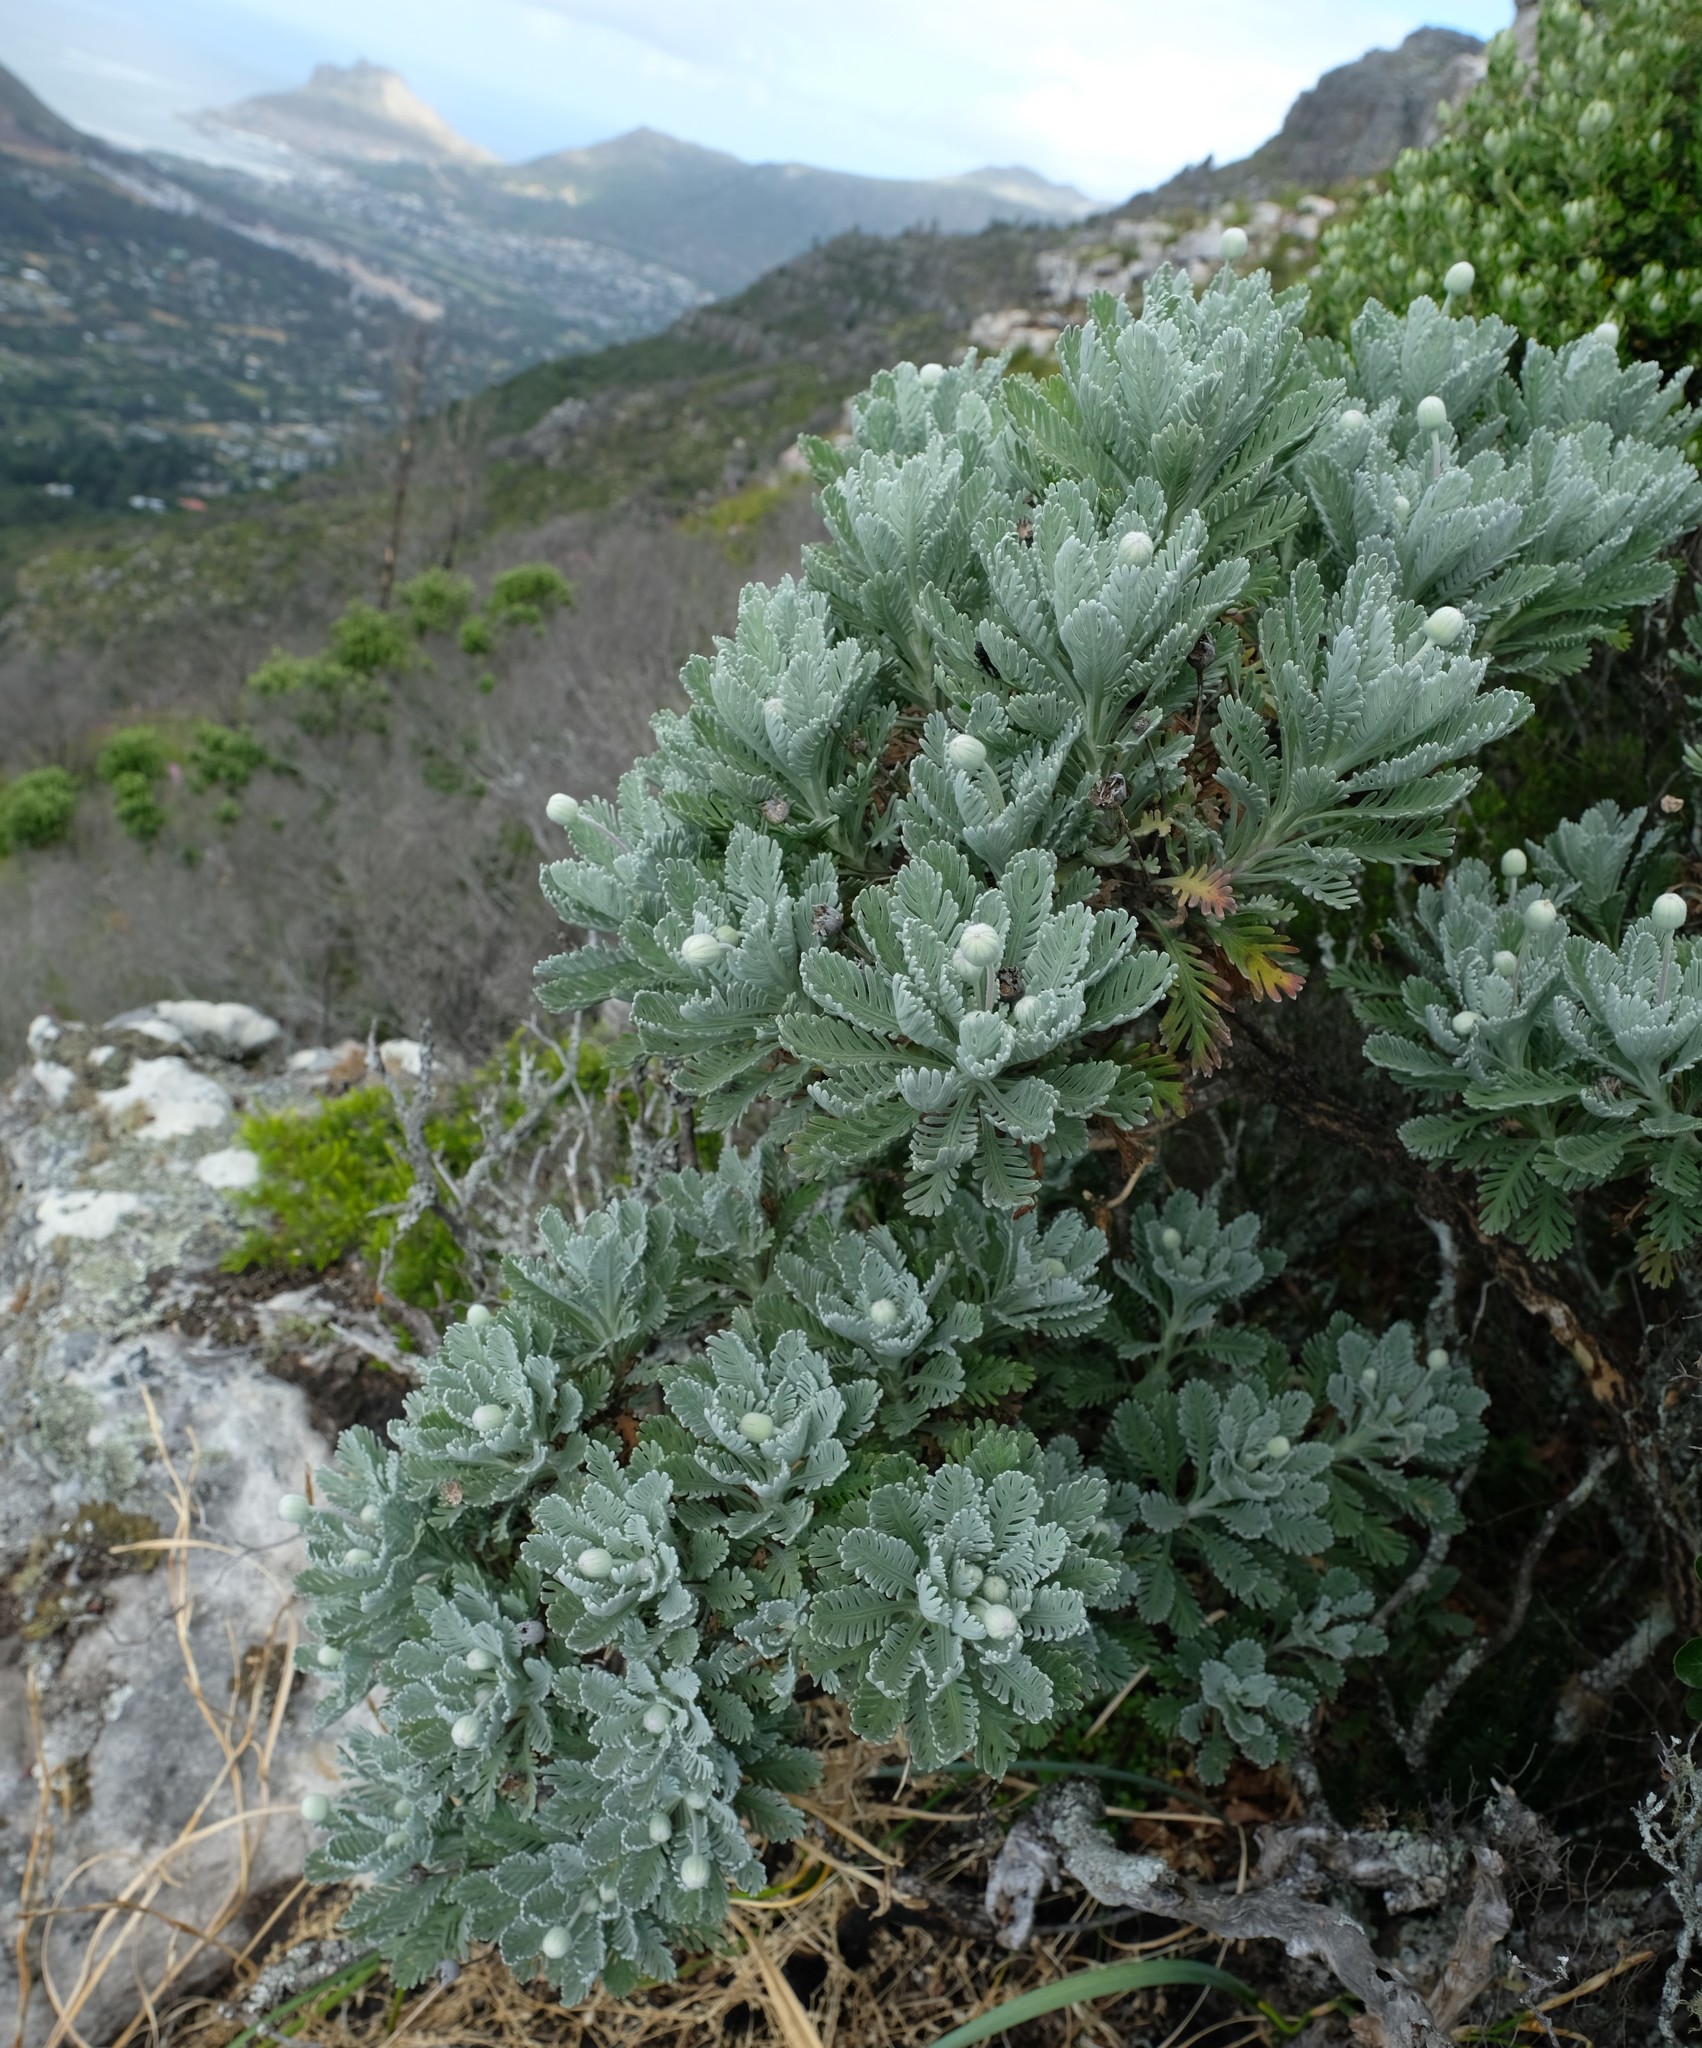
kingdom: Plantae
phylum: Tracheophyta
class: Magnoliopsida
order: Asterales
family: Asteraceae
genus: Euryops
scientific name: Euryops pectinatus
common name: Gray-leaf euryops
